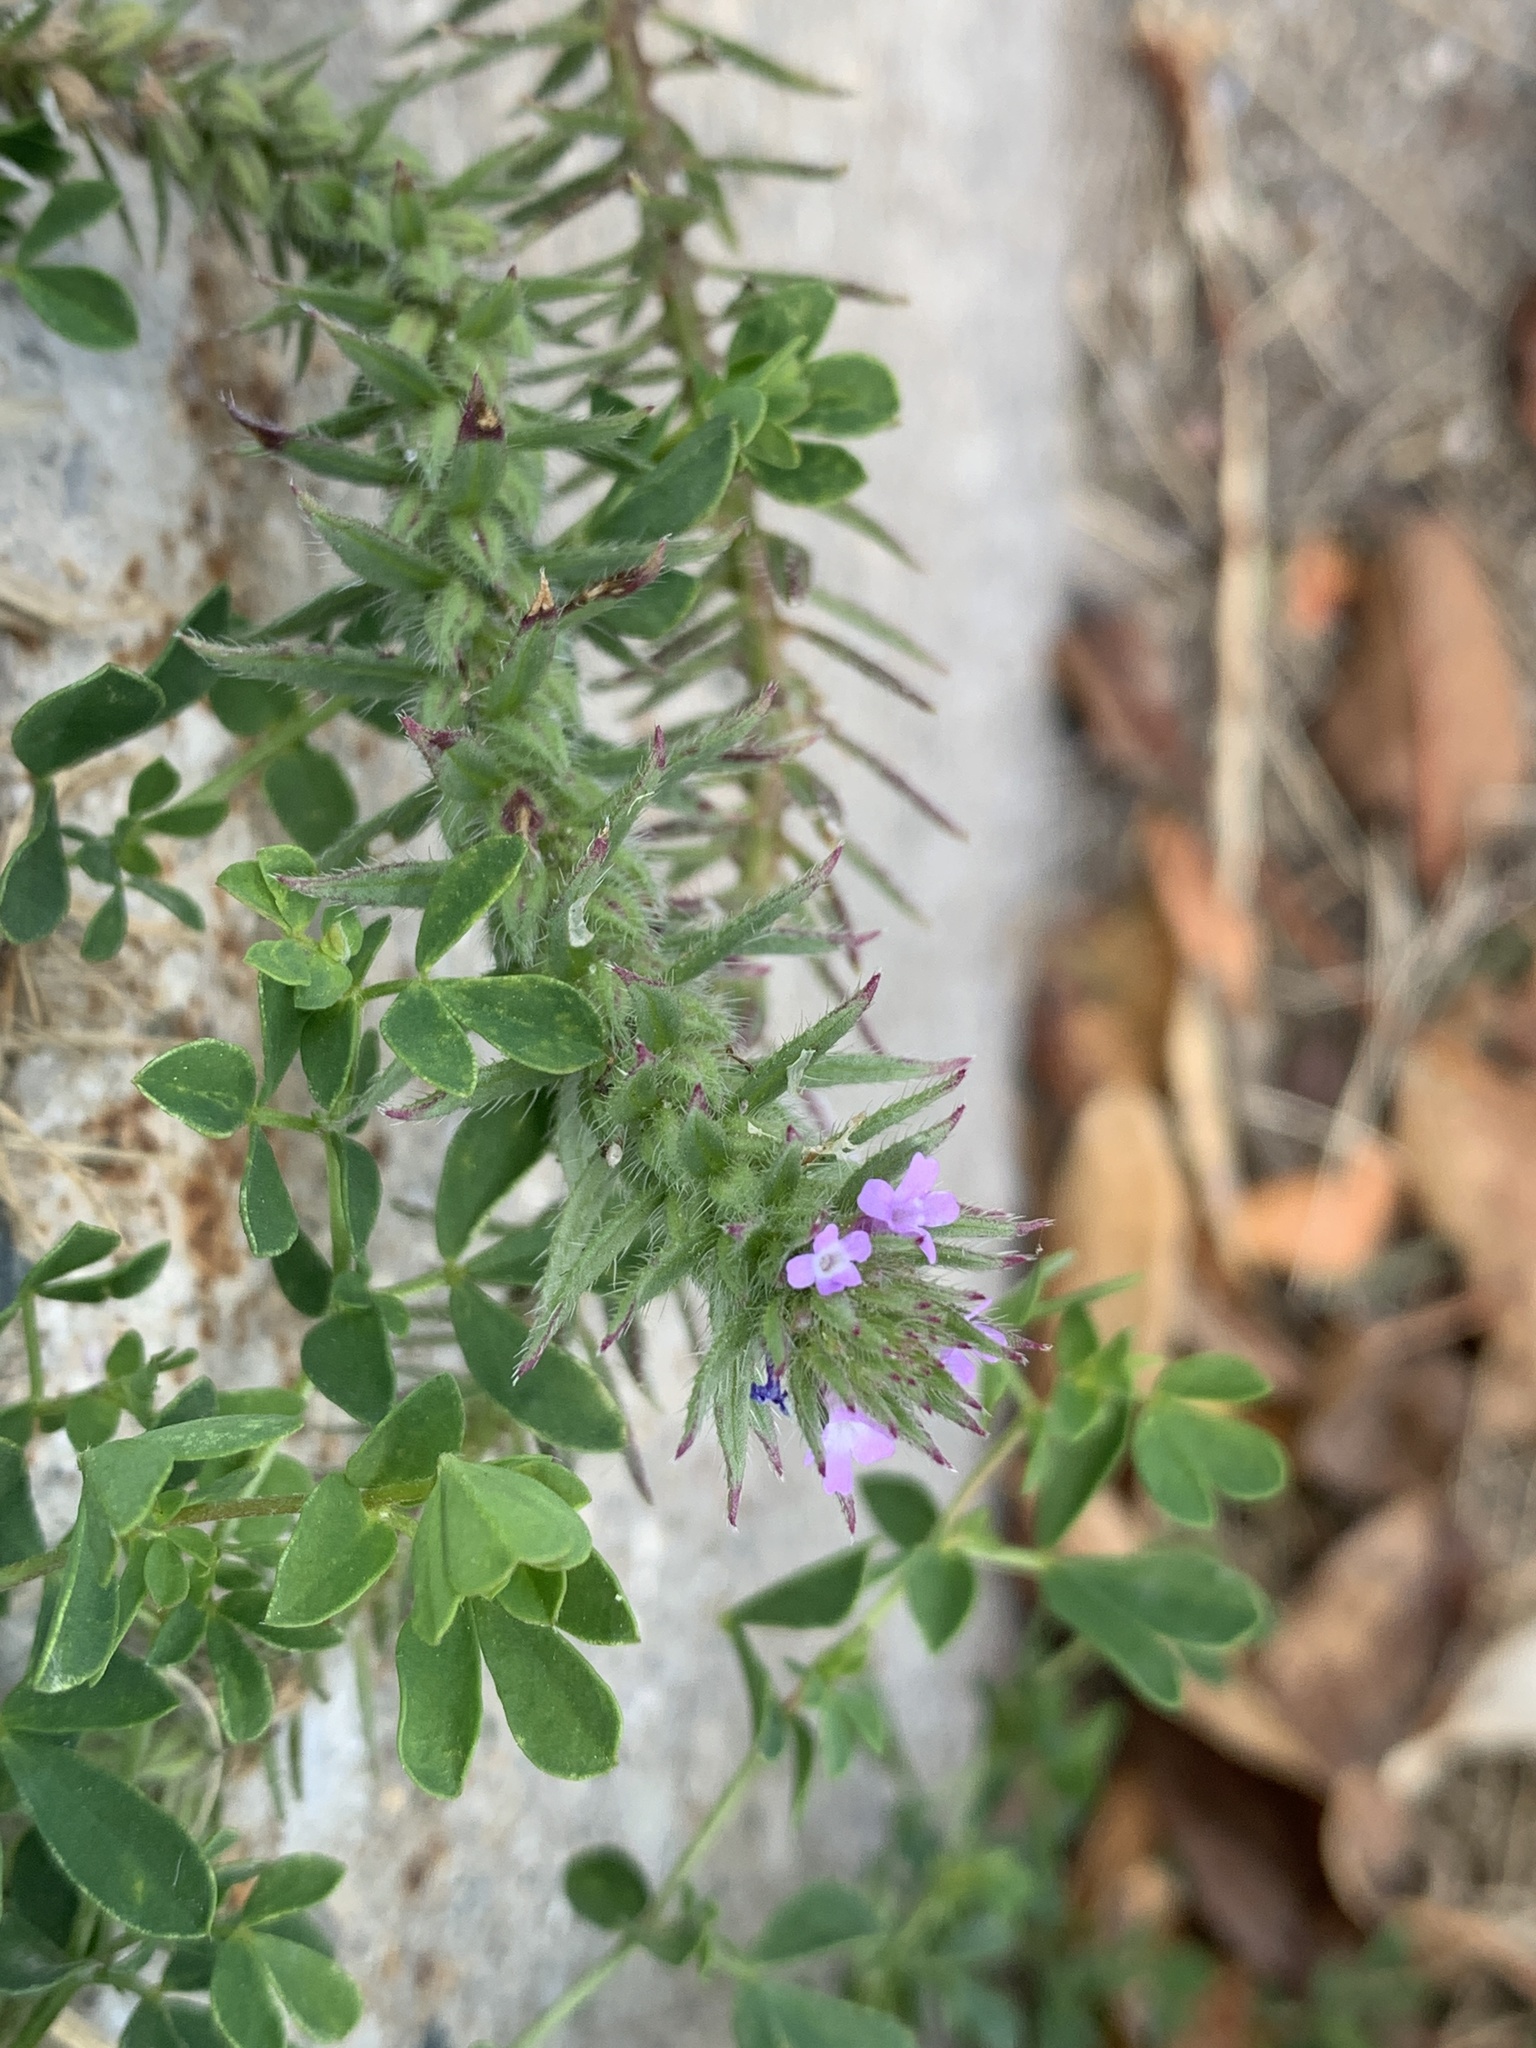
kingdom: Plantae
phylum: Tracheophyta
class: Magnoliopsida
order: Lamiales
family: Verbenaceae
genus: Verbena
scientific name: Verbena bracteata
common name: Bracted vervain
